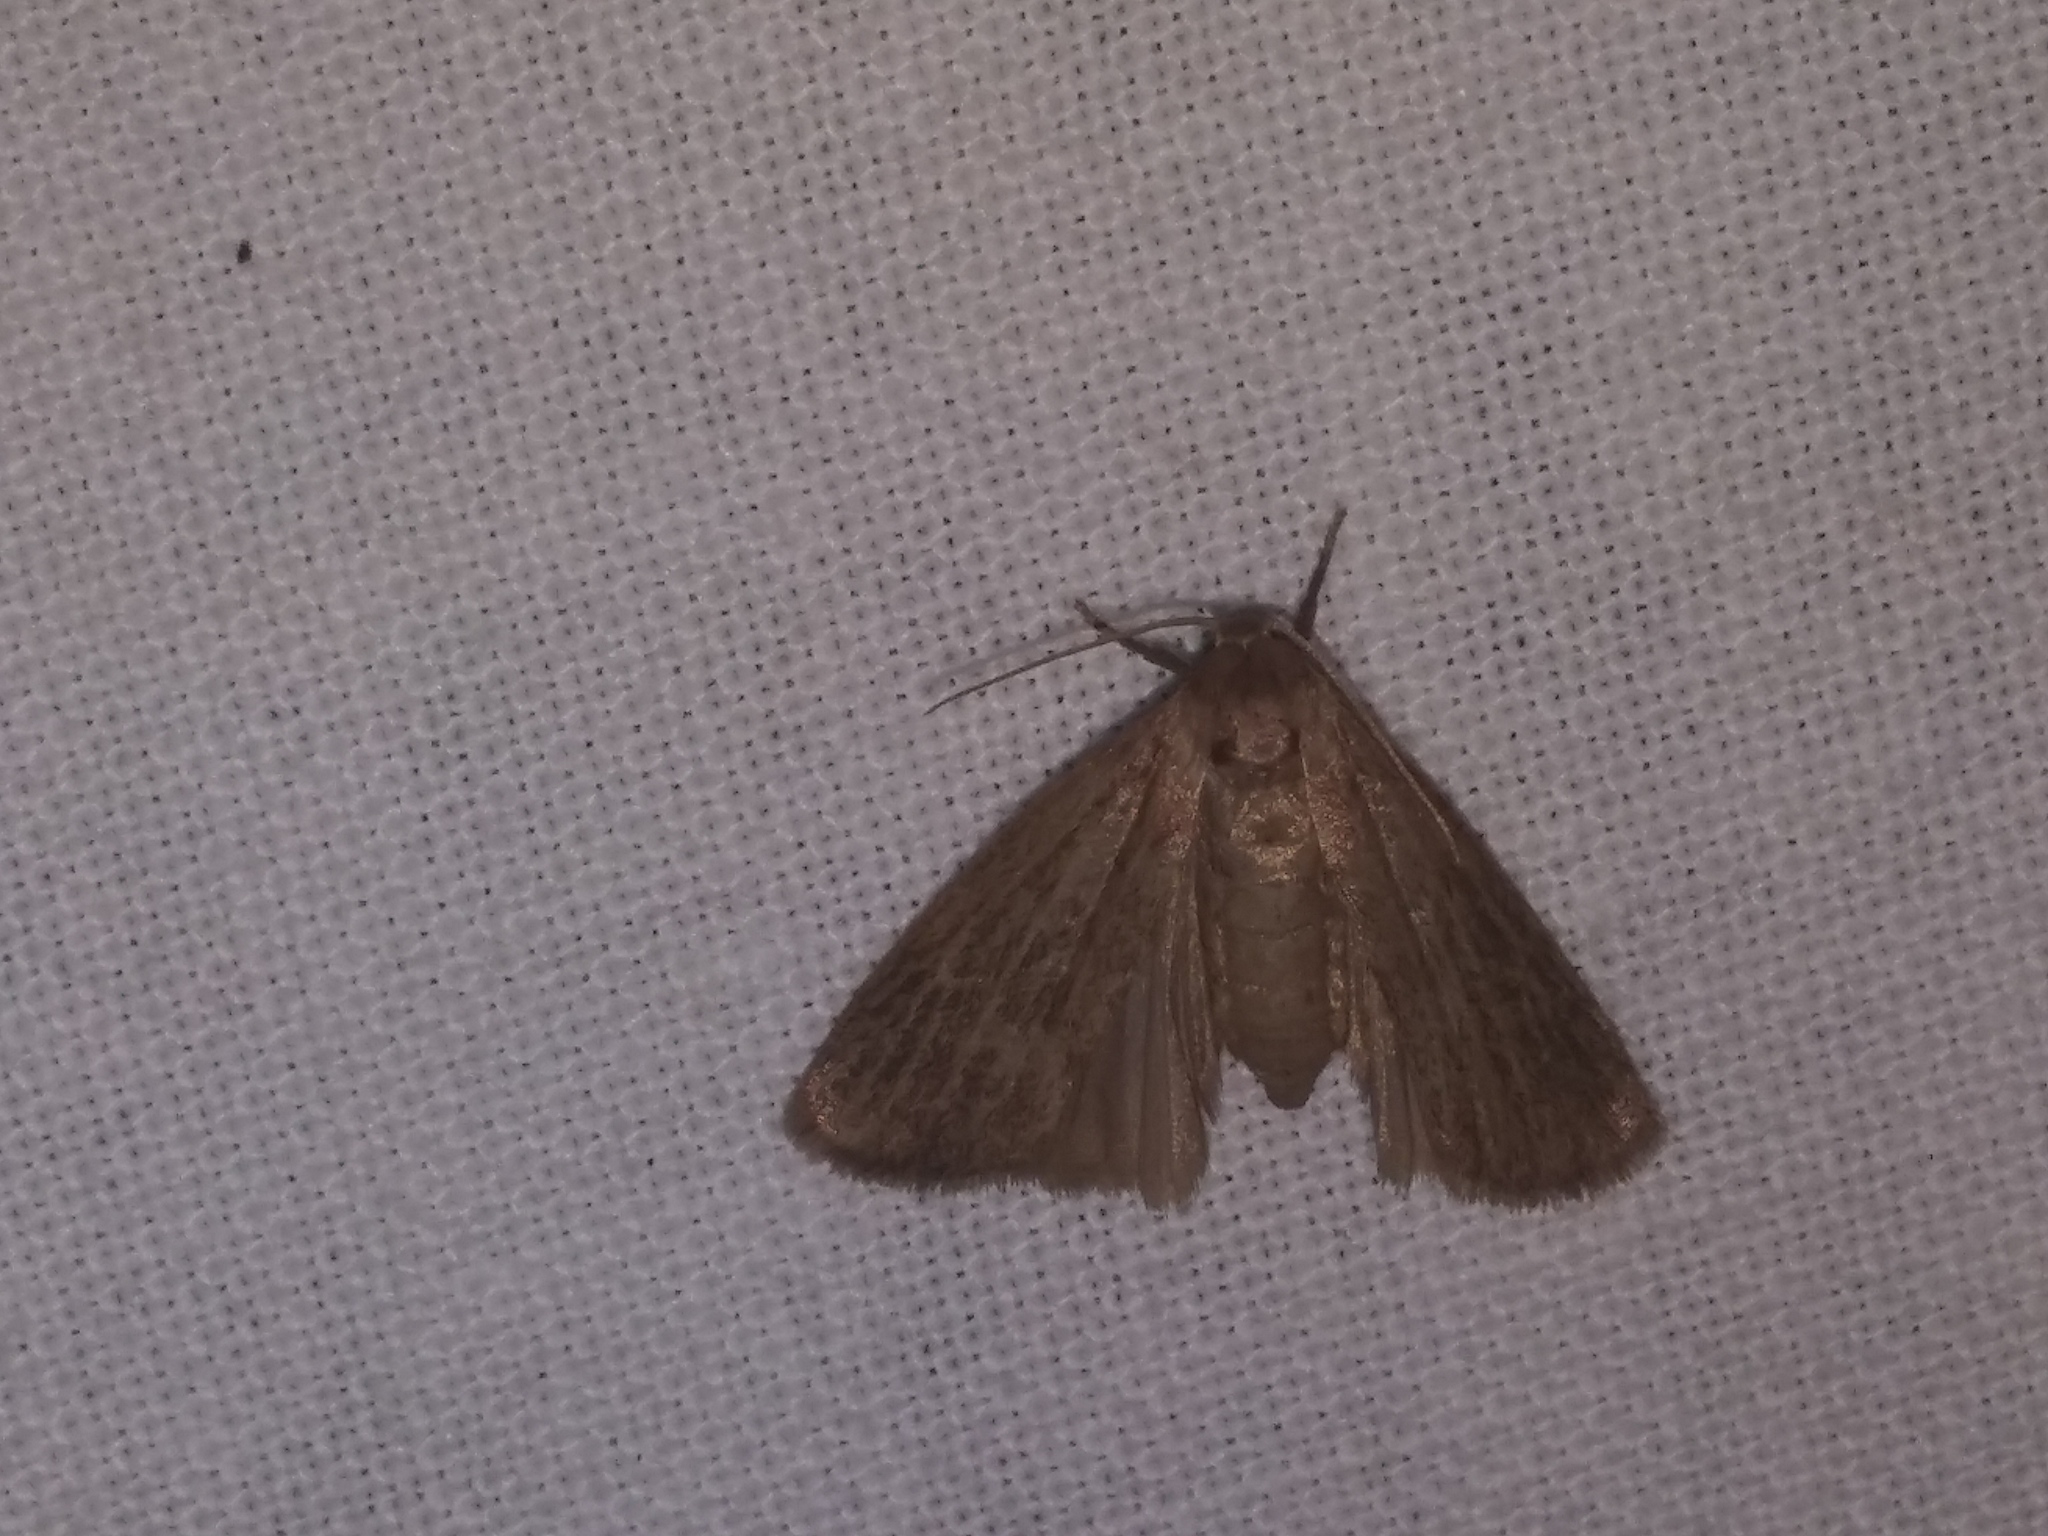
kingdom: Animalia
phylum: Arthropoda
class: Insecta
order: Lepidoptera
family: Erebidae
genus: Crambidia
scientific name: Crambidia pallida
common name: Pale lichen moth
